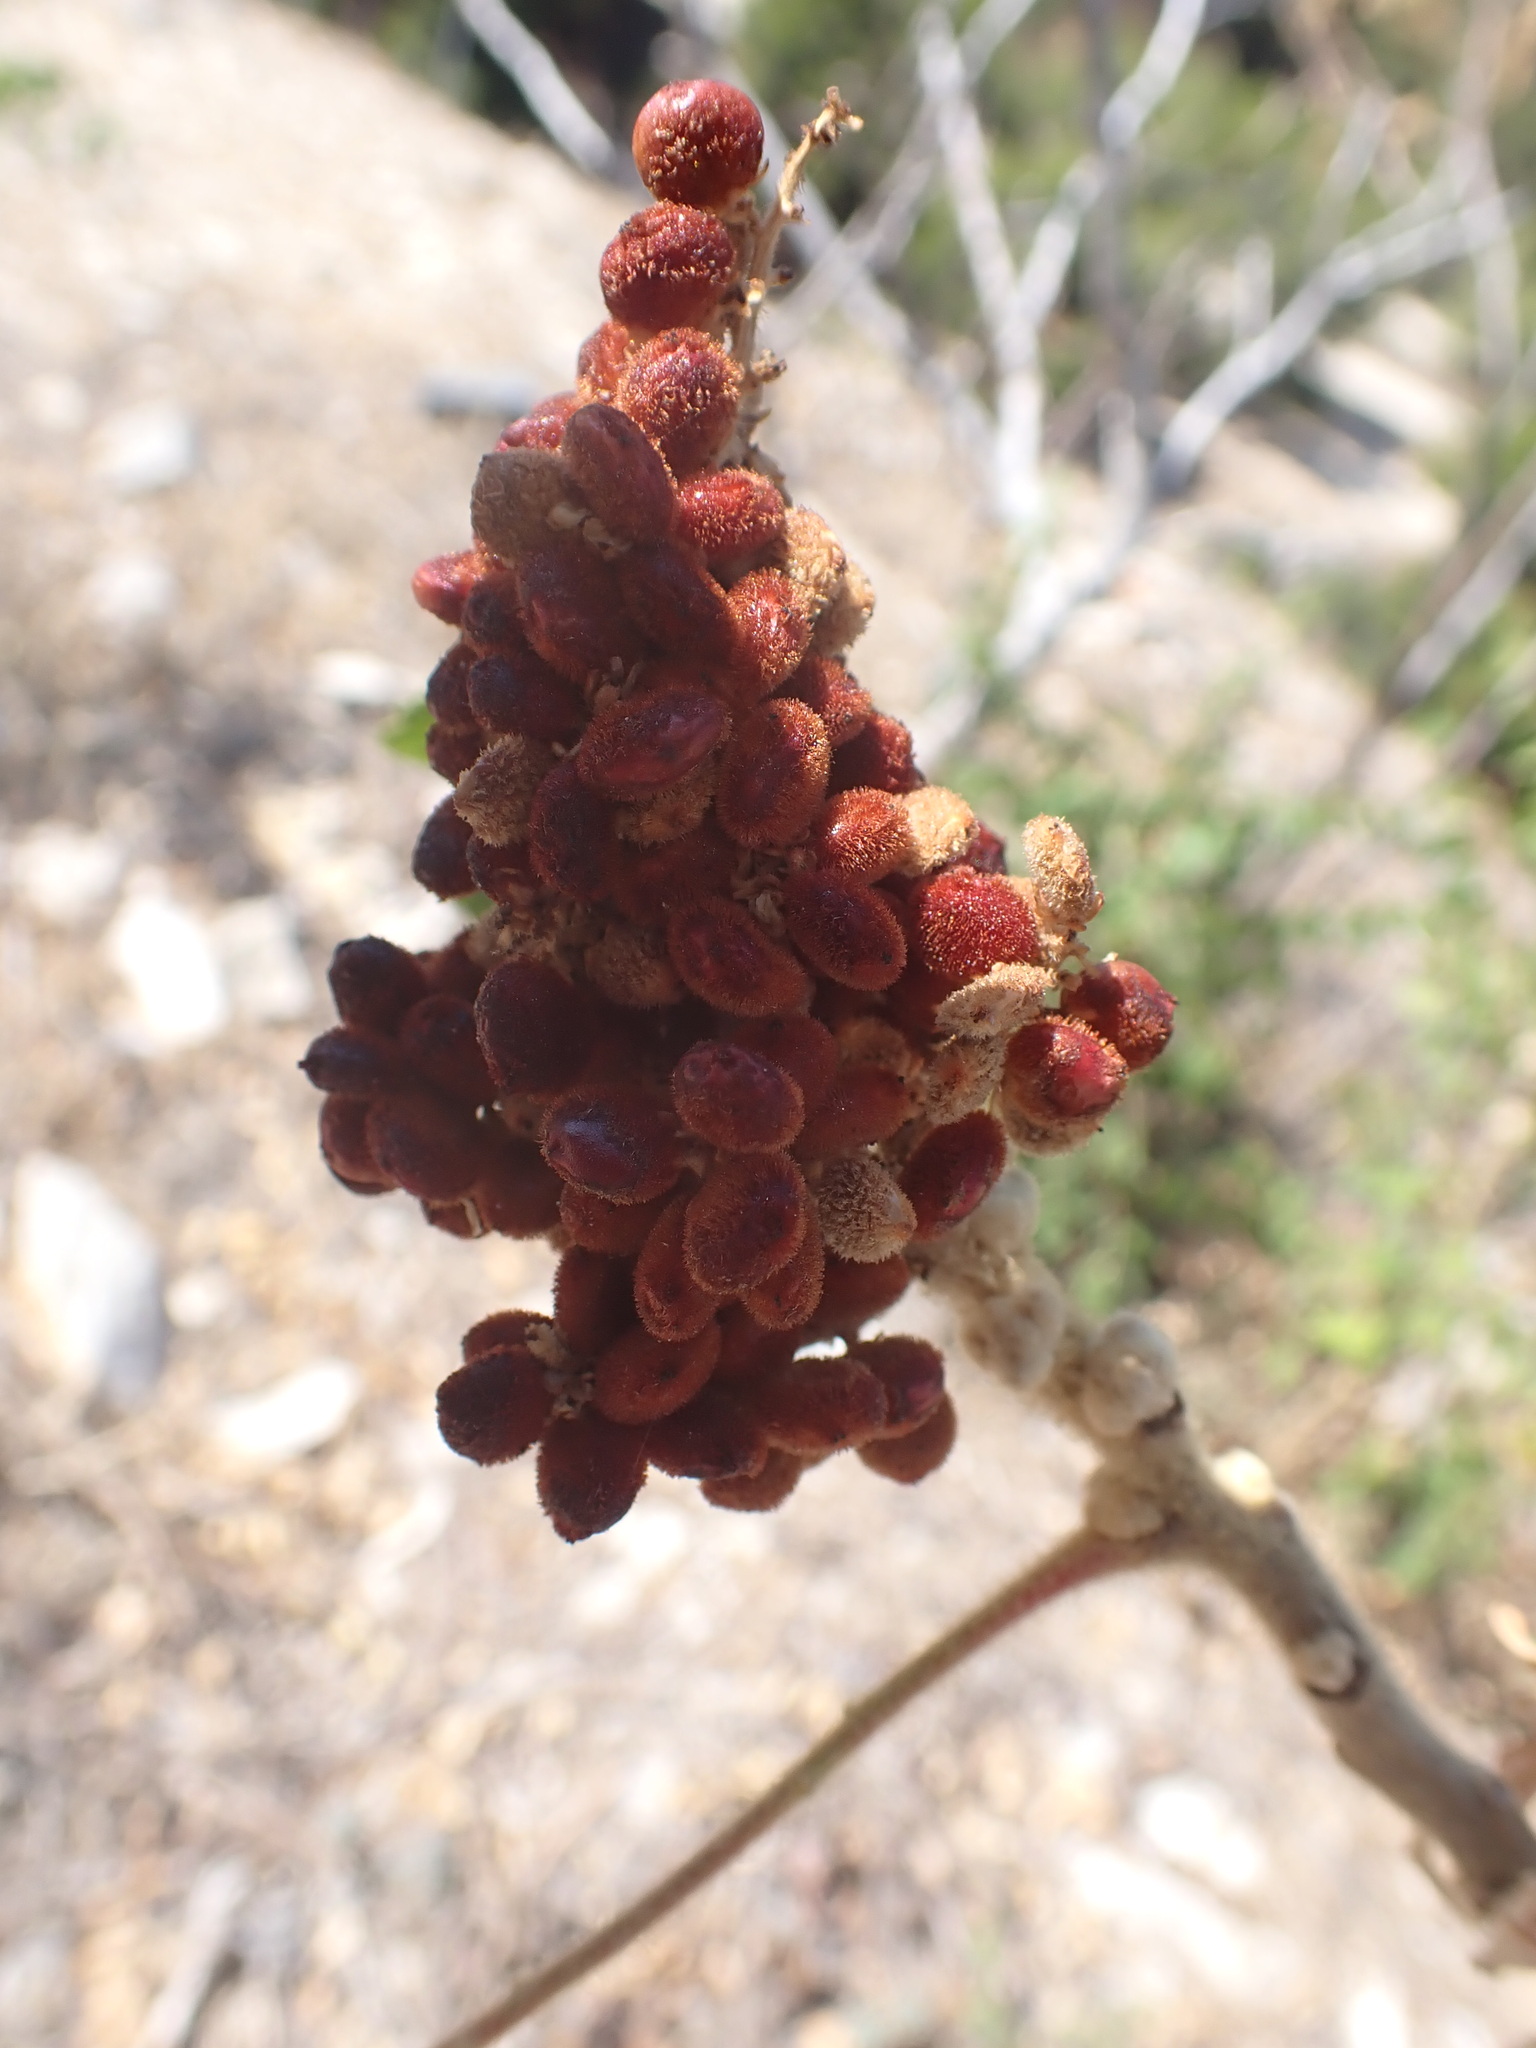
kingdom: Plantae
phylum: Tracheophyta
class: Magnoliopsida
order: Sapindales
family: Anacardiaceae
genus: Rhus
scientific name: Rhus coriaria
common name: Tanner's sumach
